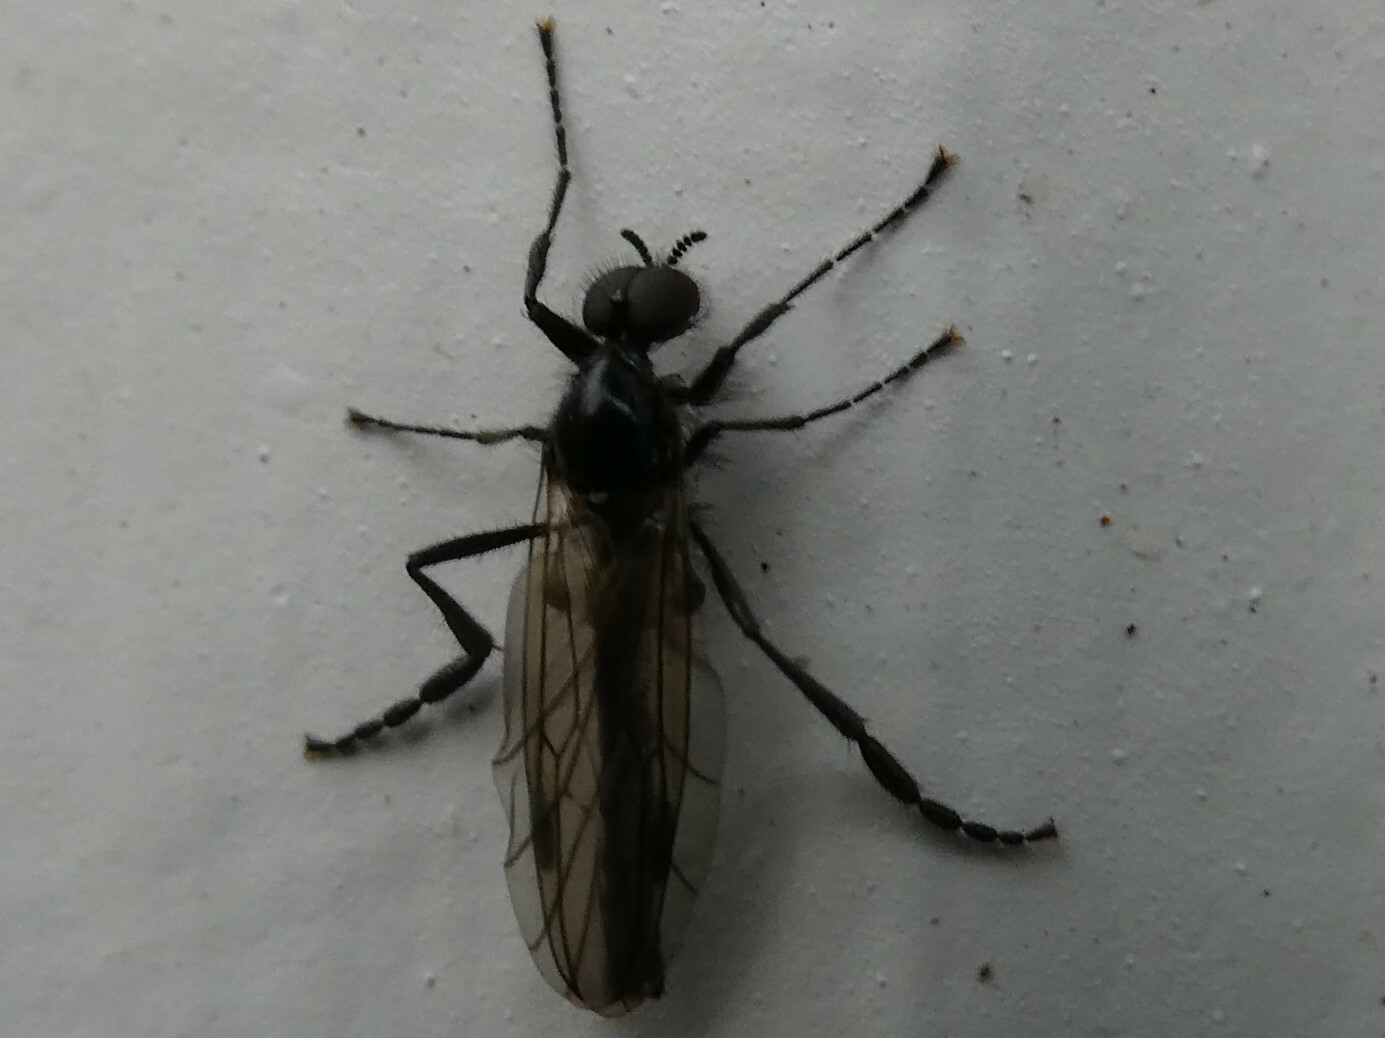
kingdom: Animalia
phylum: Arthropoda
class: Insecta
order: Diptera
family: Bibionidae
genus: Bibio
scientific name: Bibio slossonae
